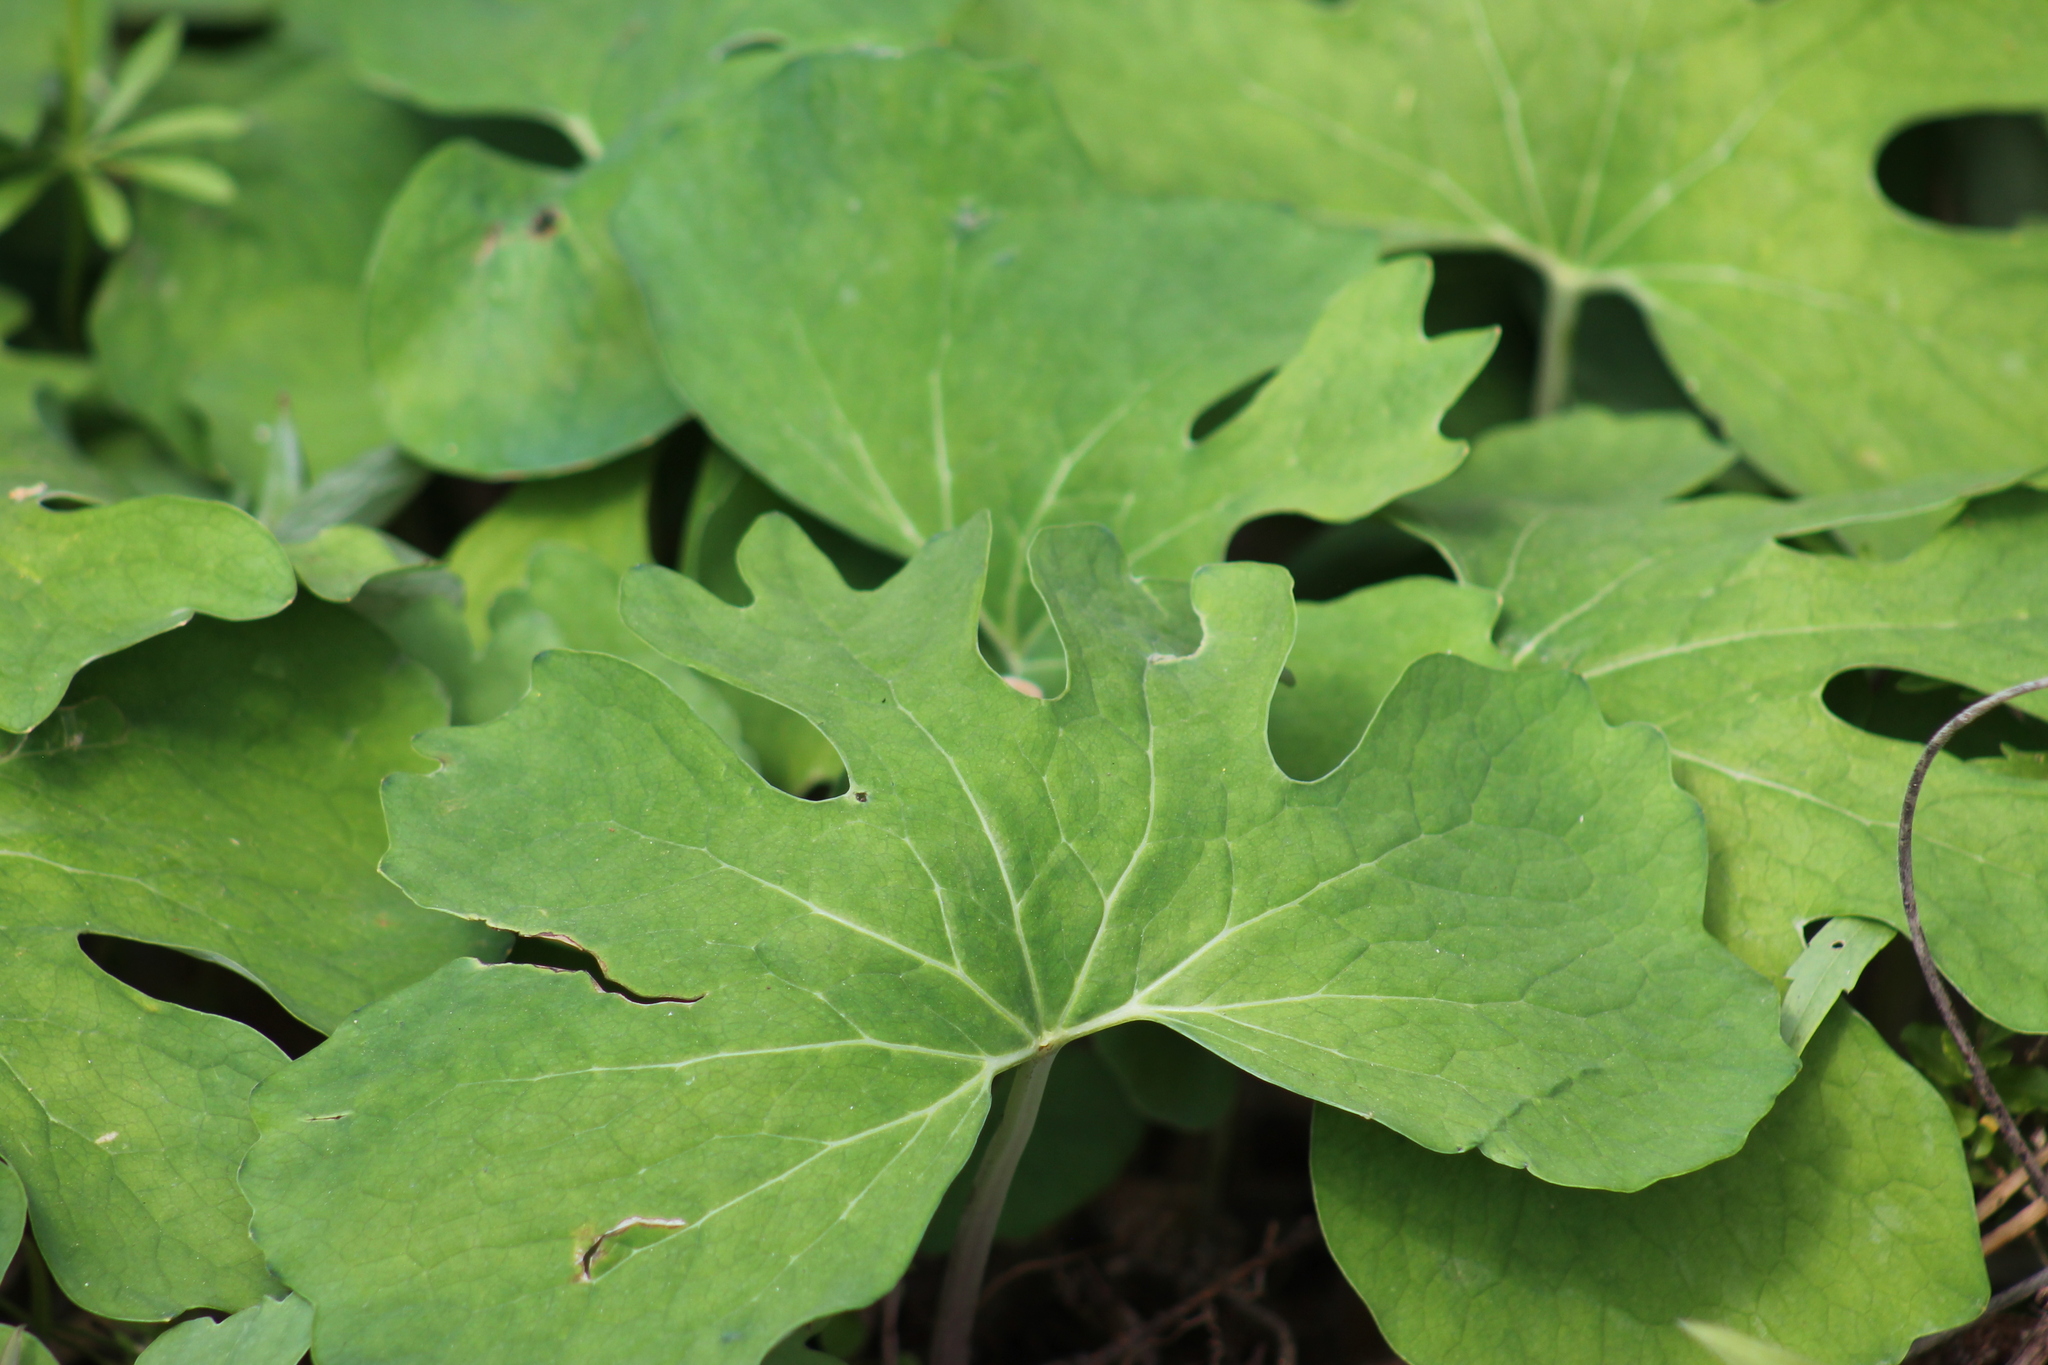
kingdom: Plantae
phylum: Tracheophyta
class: Magnoliopsida
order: Ranunculales
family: Papaveraceae
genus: Sanguinaria
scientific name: Sanguinaria canadensis
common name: Bloodroot
